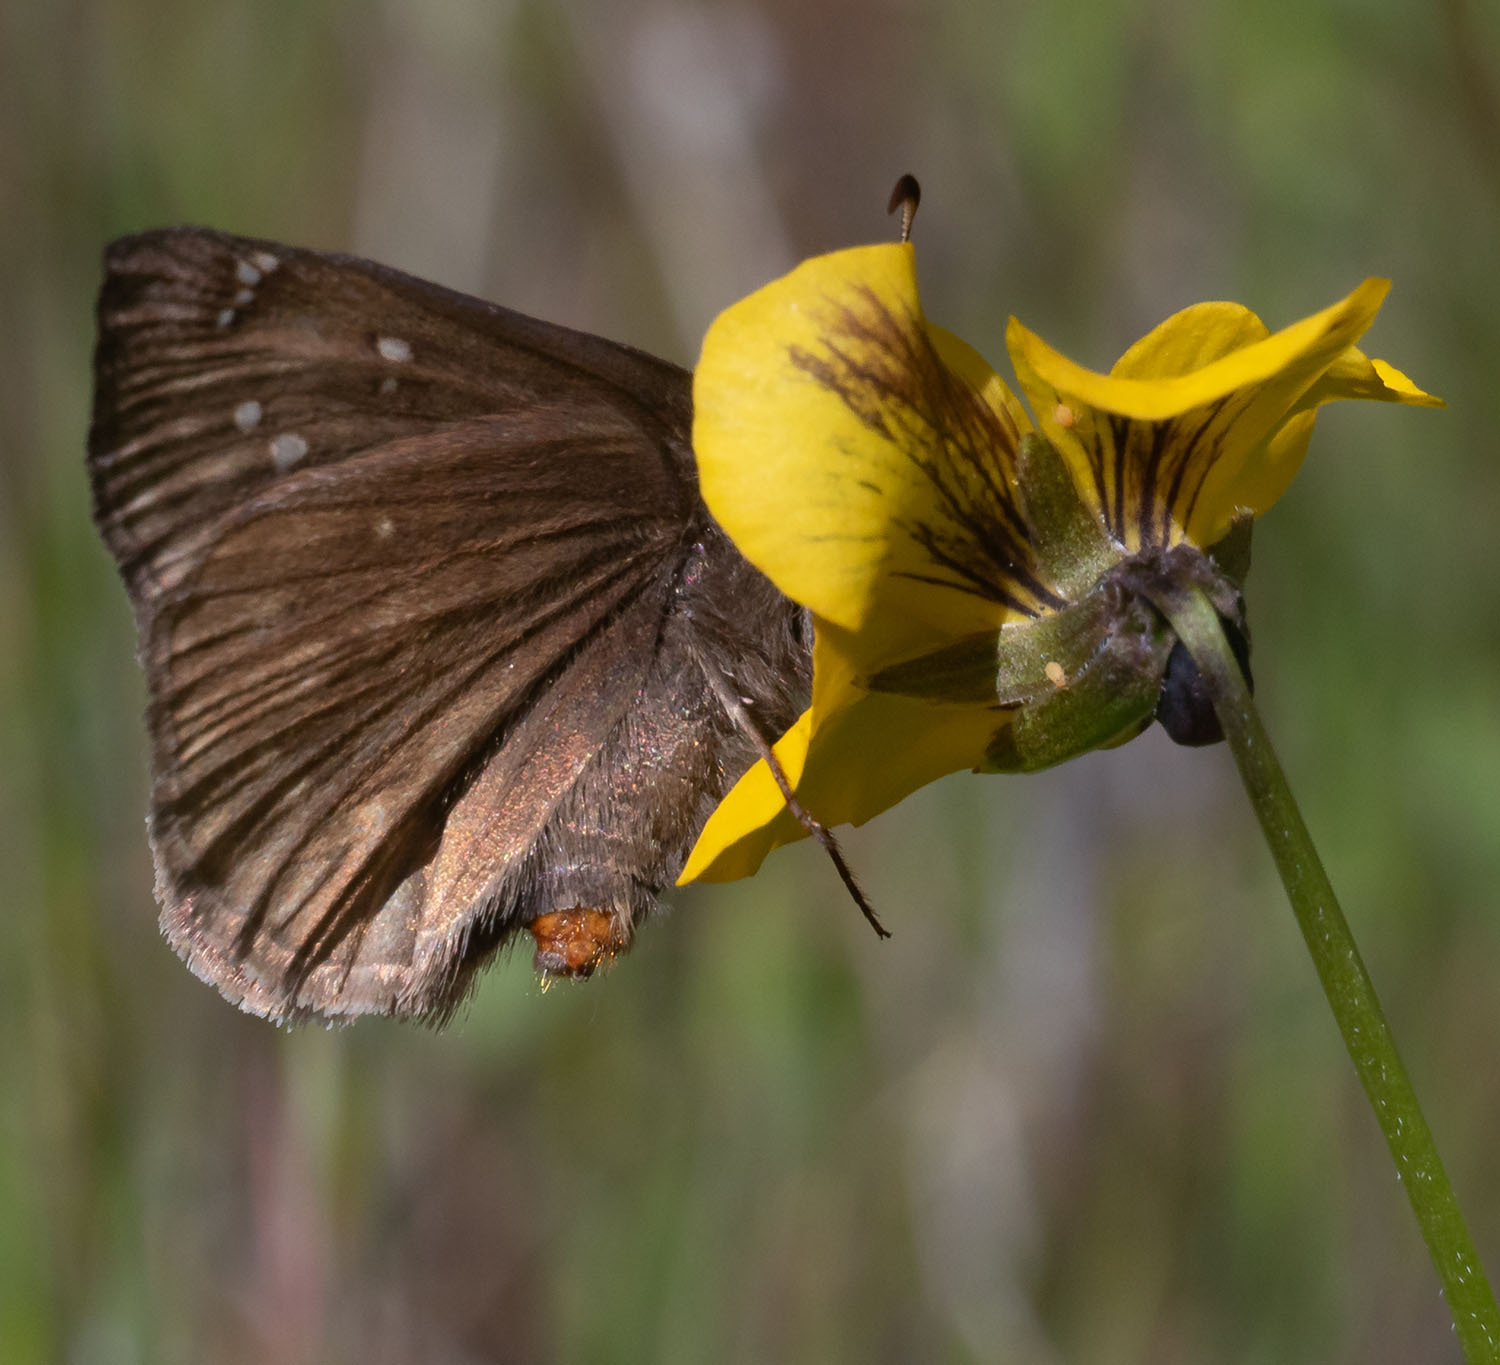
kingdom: Animalia
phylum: Arthropoda
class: Insecta
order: Lepidoptera
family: Hesperiidae
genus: Erynnis
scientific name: Erynnis propertius
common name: Propertius duskywing
